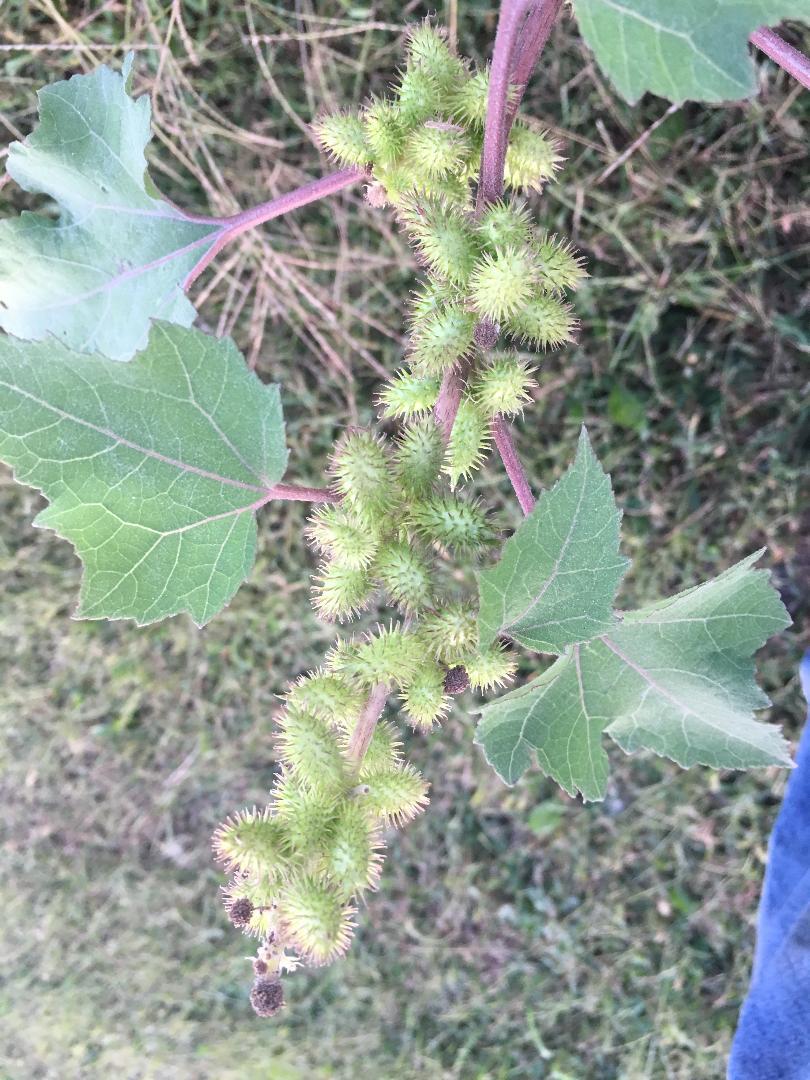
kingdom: Plantae
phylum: Tracheophyta
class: Magnoliopsida
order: Asterales
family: Asteraceae
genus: Xanthium
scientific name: Xanthium strumarium
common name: Rough cocklebur
